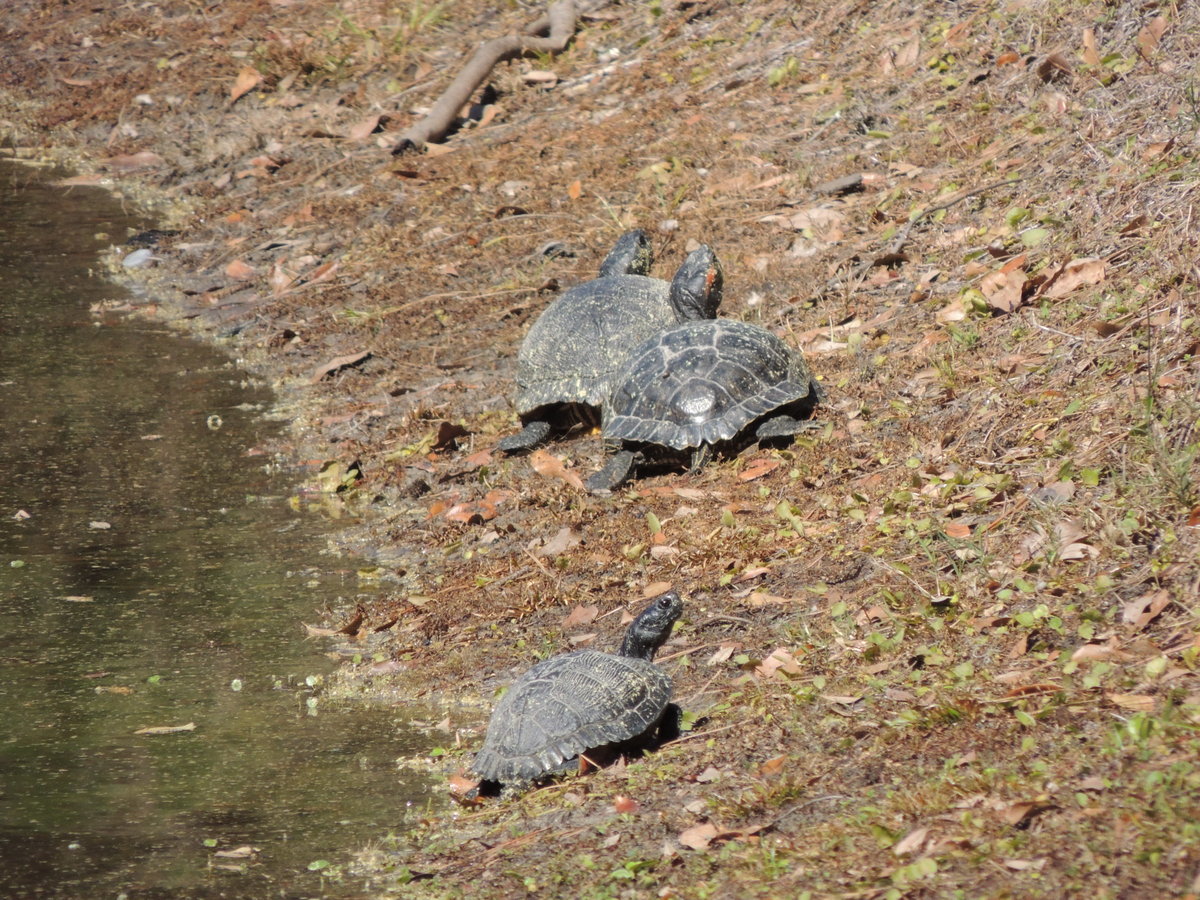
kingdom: Animalia
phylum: Chordata
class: Testudines
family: Emydidae
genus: Trachemys
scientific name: Trachemys scripta
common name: Slider
